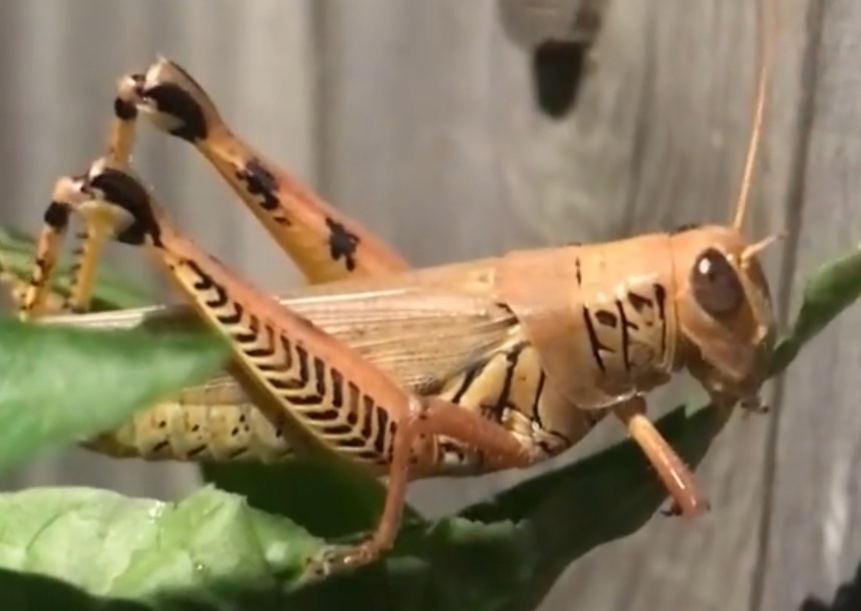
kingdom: Animalia
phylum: Arthropoda
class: Insecta
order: Orthoptera
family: Acrididae
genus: Melanoplus
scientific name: Melanoplus differentialis
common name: Differential grasshopper
